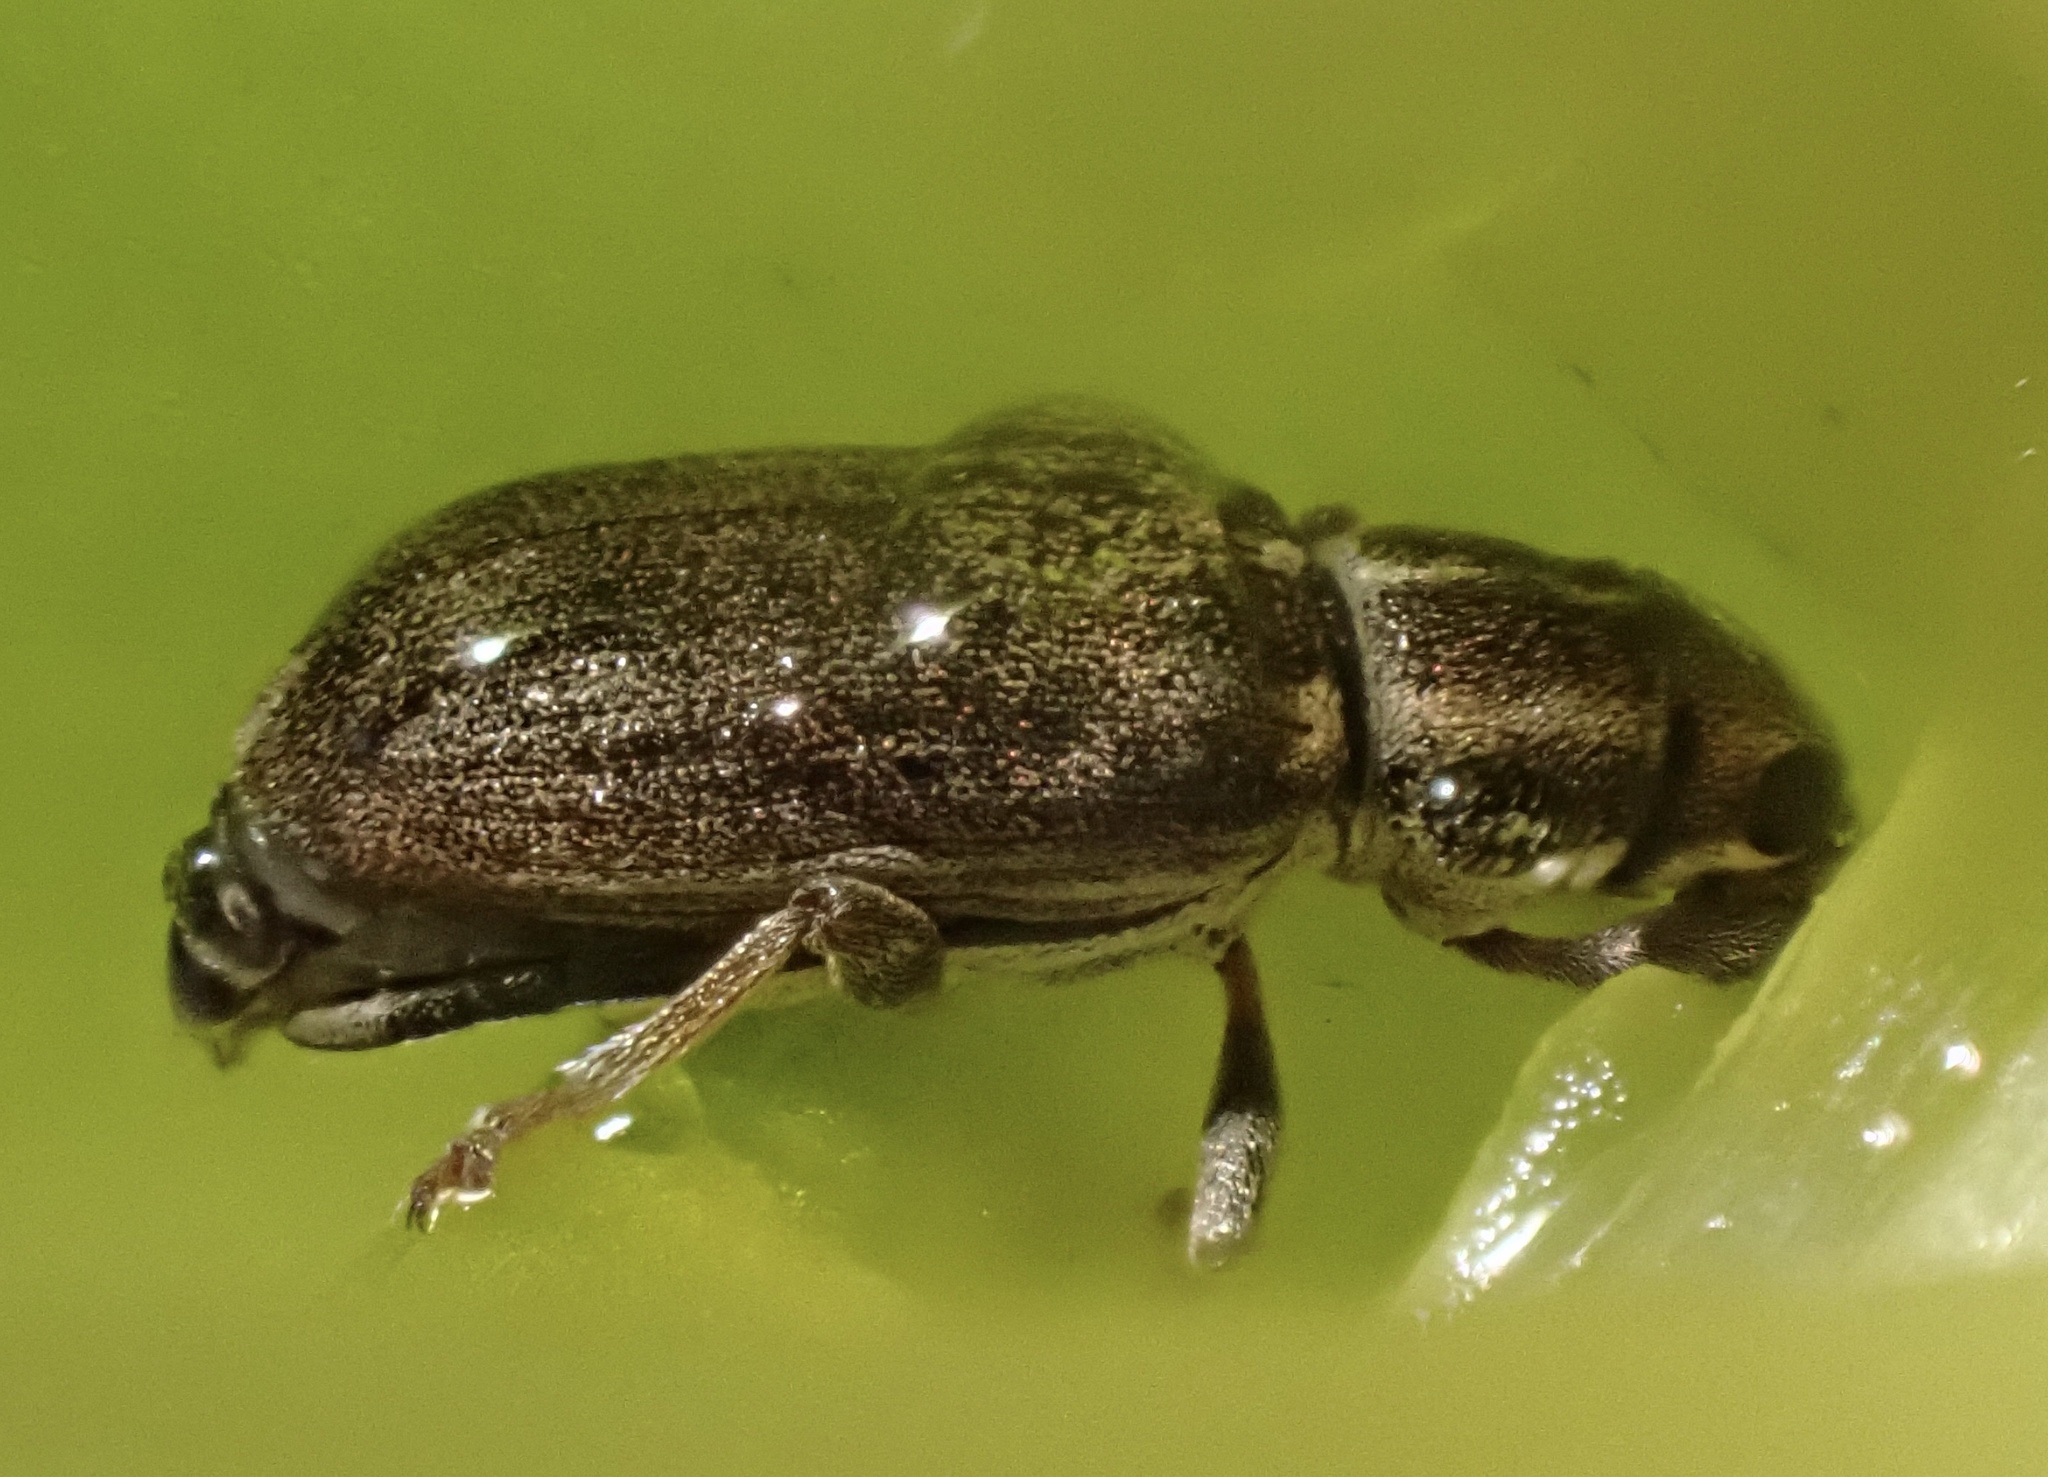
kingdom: Animalia
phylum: Arthropoda
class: Insecta
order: Coleoptera
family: Curculionidae
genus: Sitona
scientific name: Sitona lineatus
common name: Weevil
